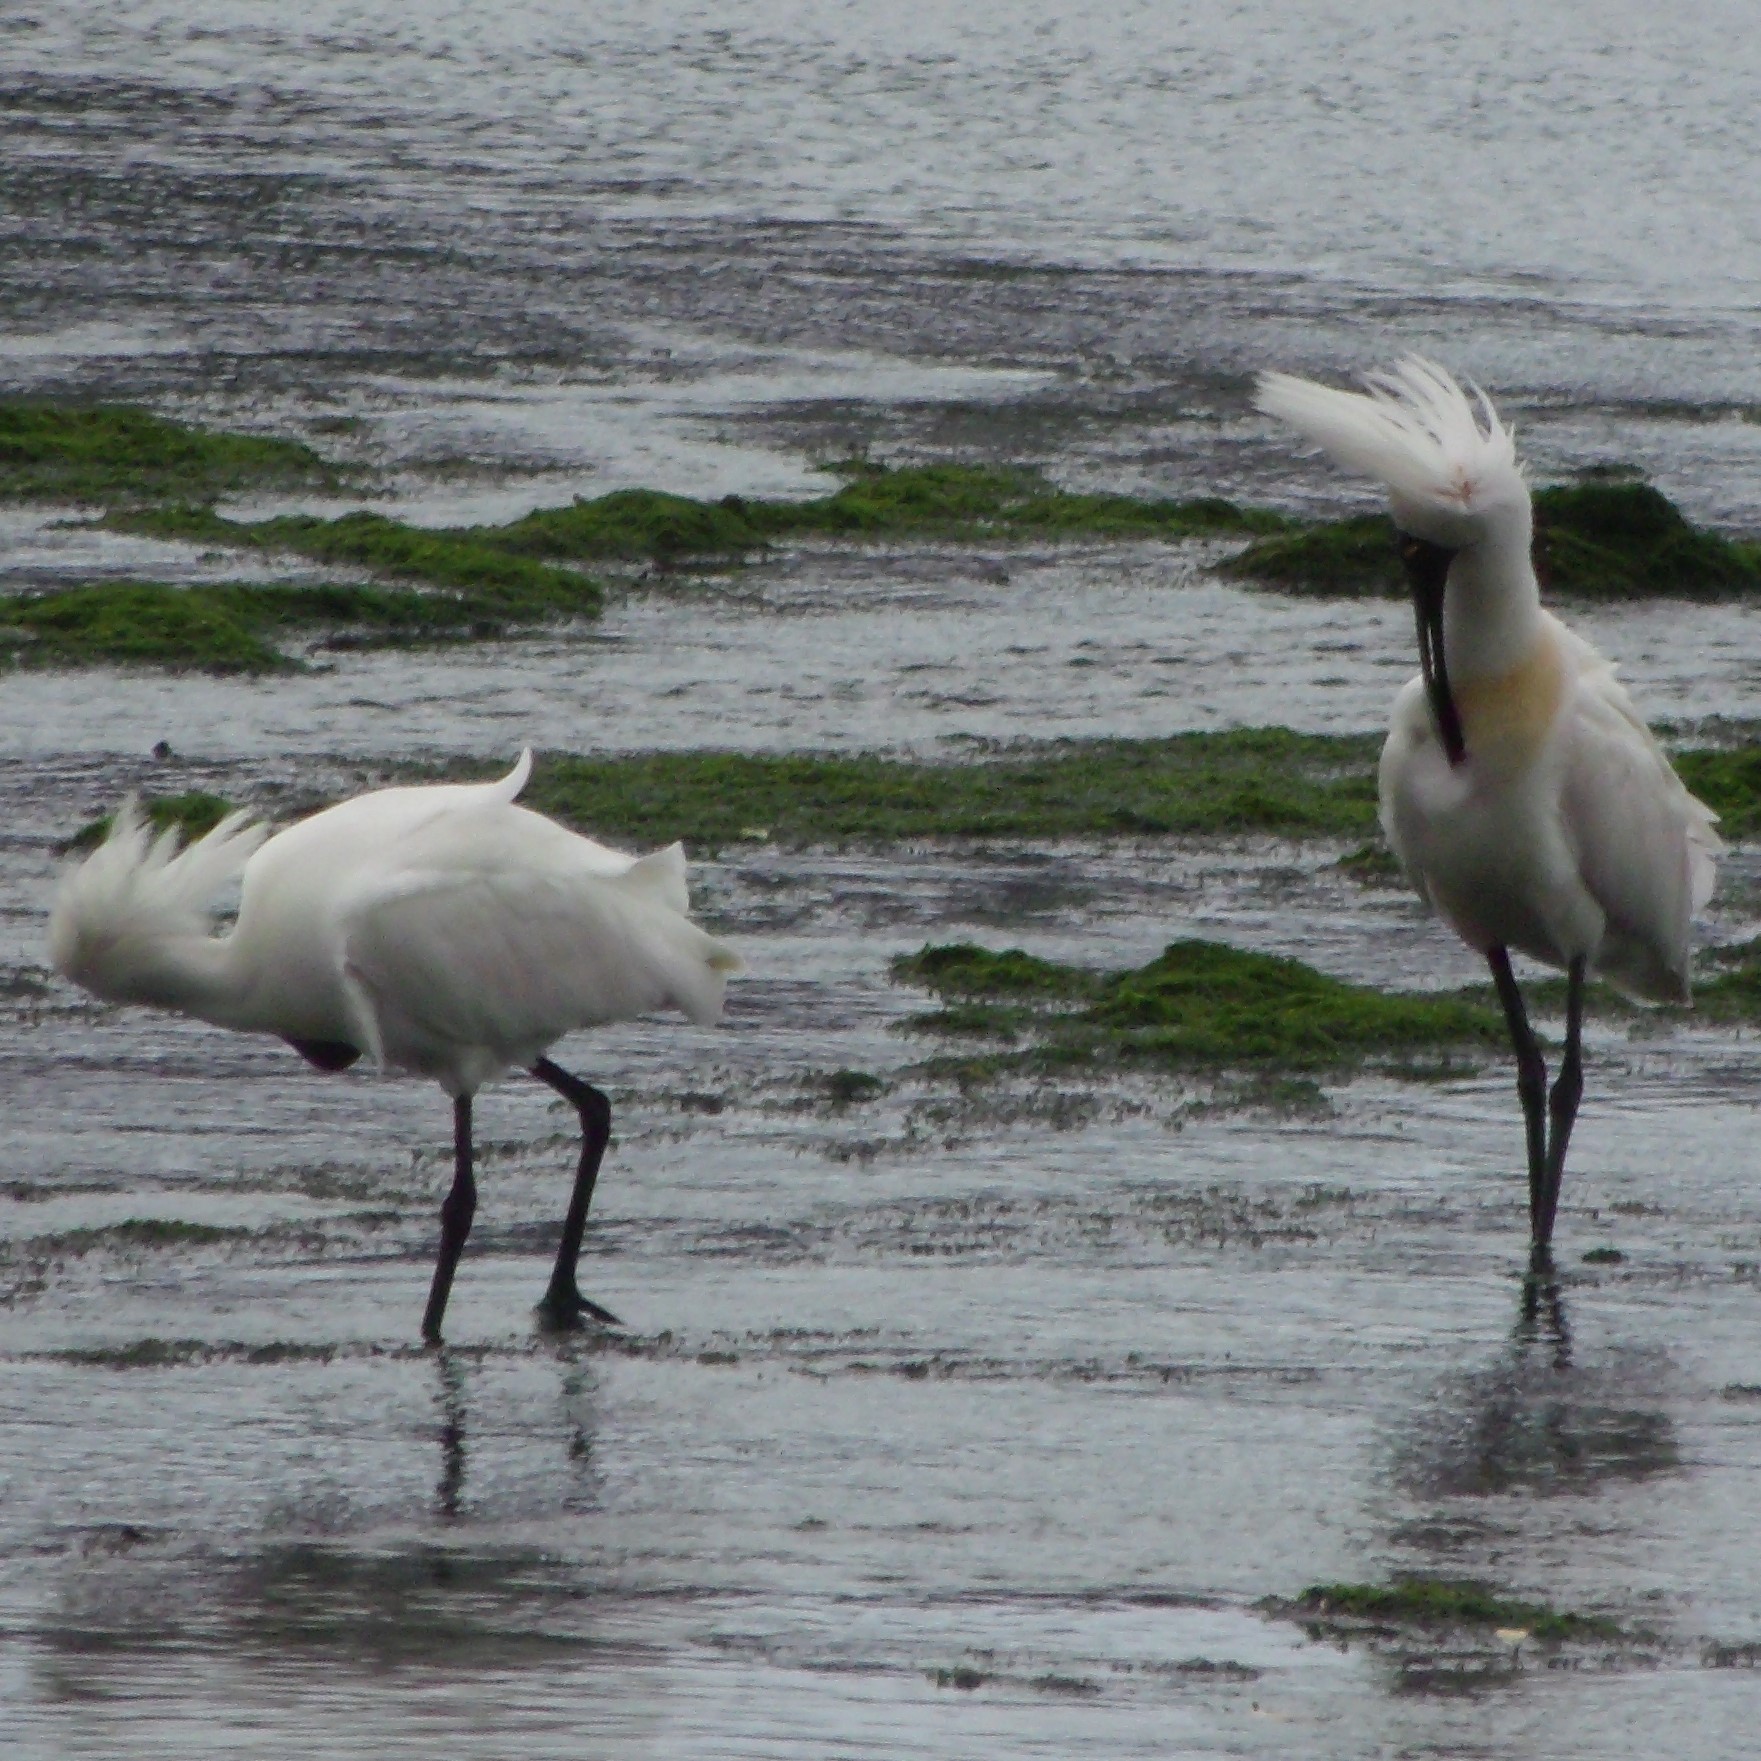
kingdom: Animalia
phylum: Chordata
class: Aves
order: Pelecaniformes
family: Threskiornithidae
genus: Platalea
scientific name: Platalea regia
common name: Royal spoonbill
